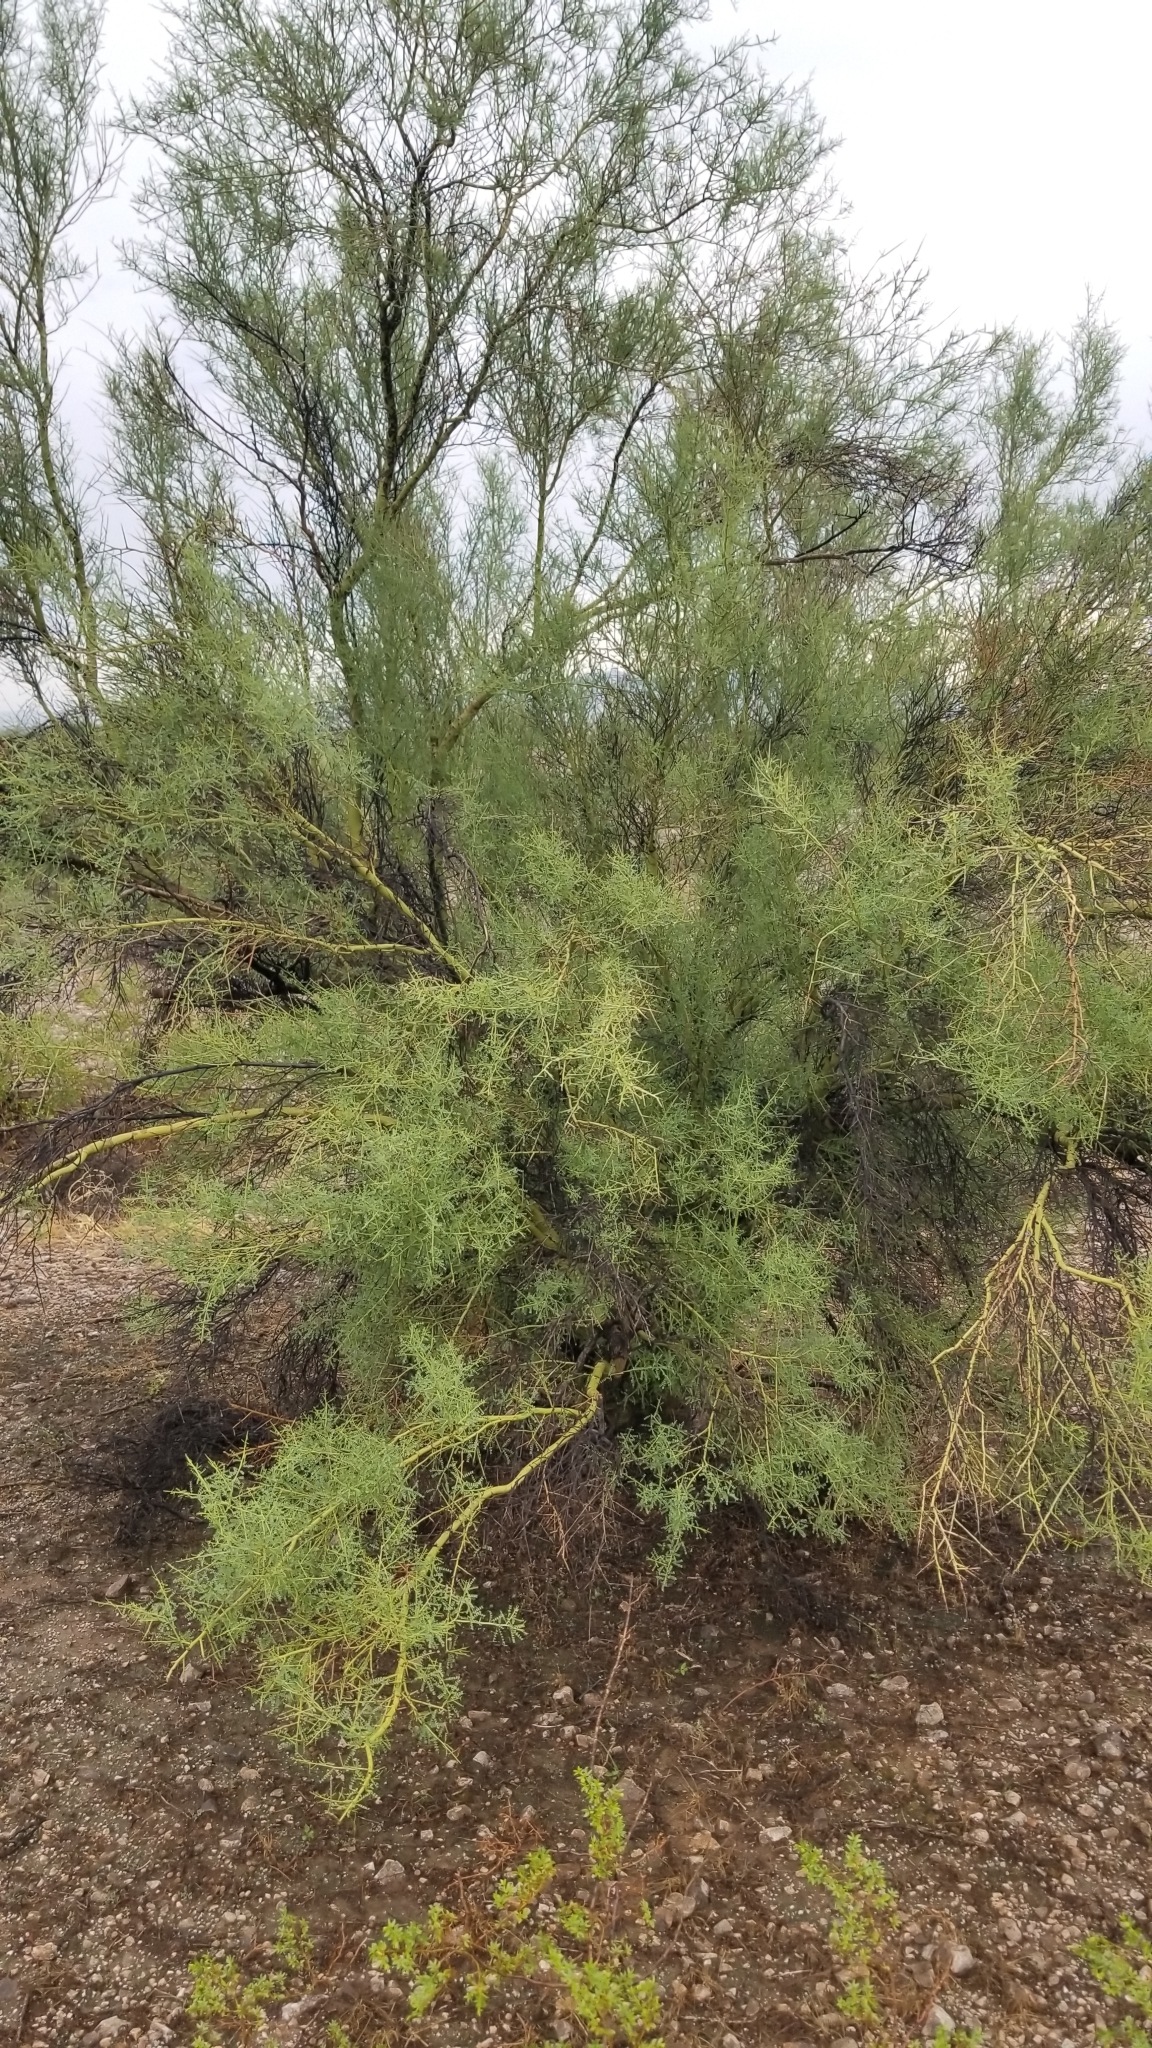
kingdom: Plantae
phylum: Tracheophyta
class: Magnoliopsida
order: Fabales
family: Fabaceae
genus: Parkinsonia
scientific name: Parkinsonia microphylla
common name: Yellow paloverde
